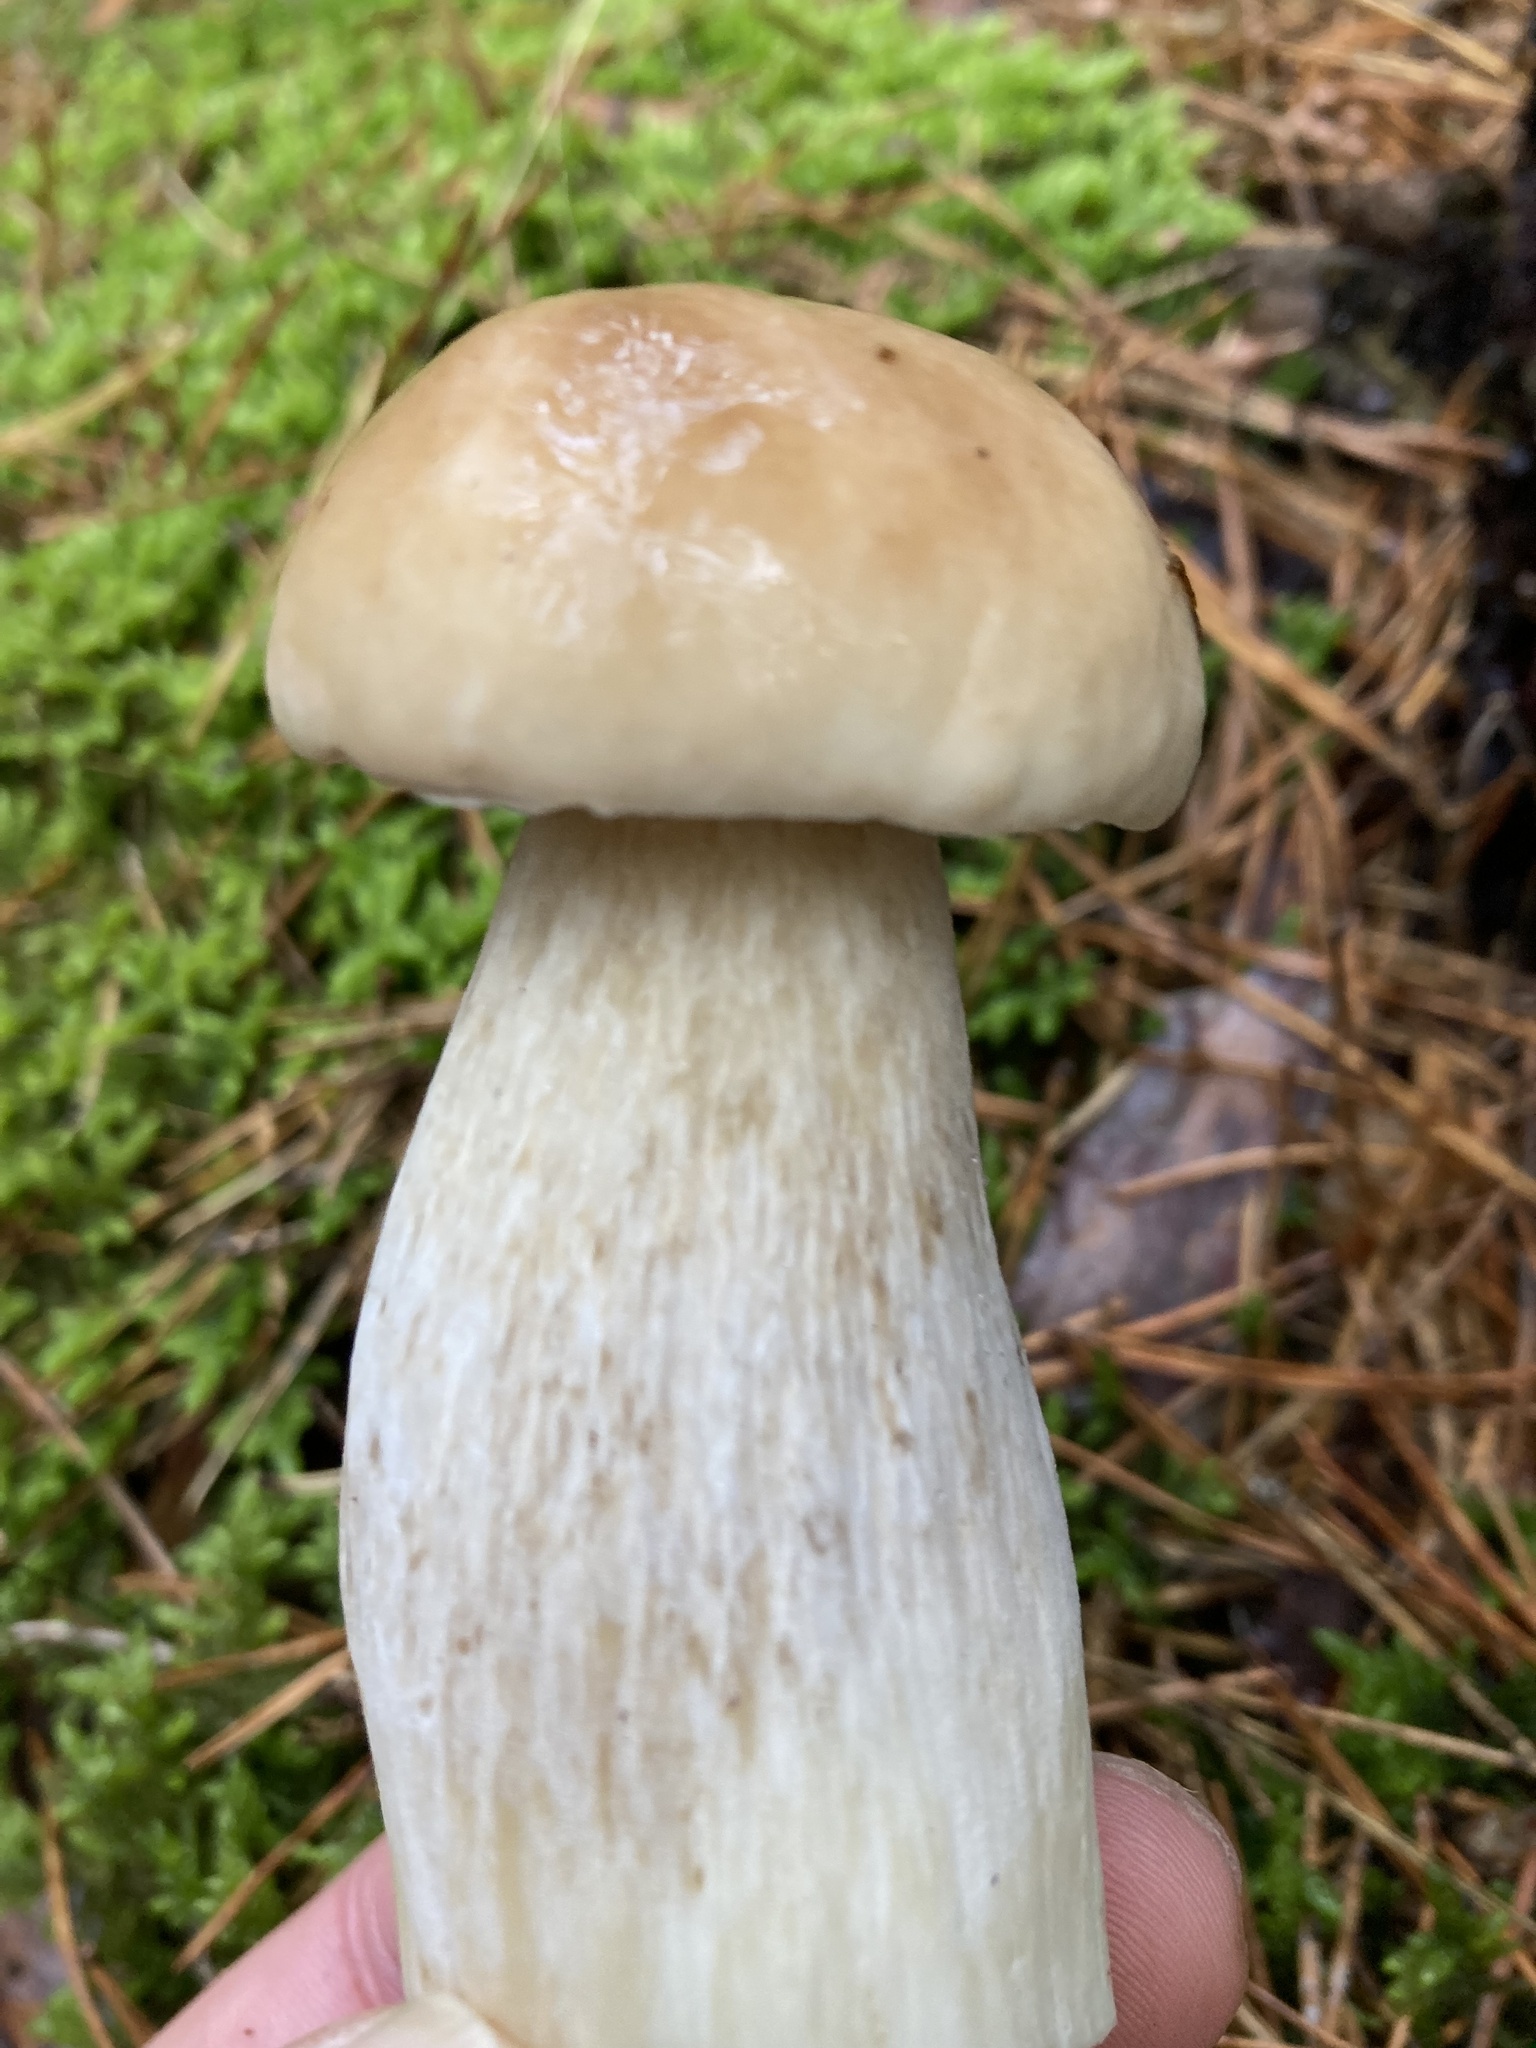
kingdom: Fungi
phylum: Basidiomycota
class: Agaricomycetes
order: Boletales
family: Boletaceae
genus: Boletus
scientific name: Boletus edulis
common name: Cep
